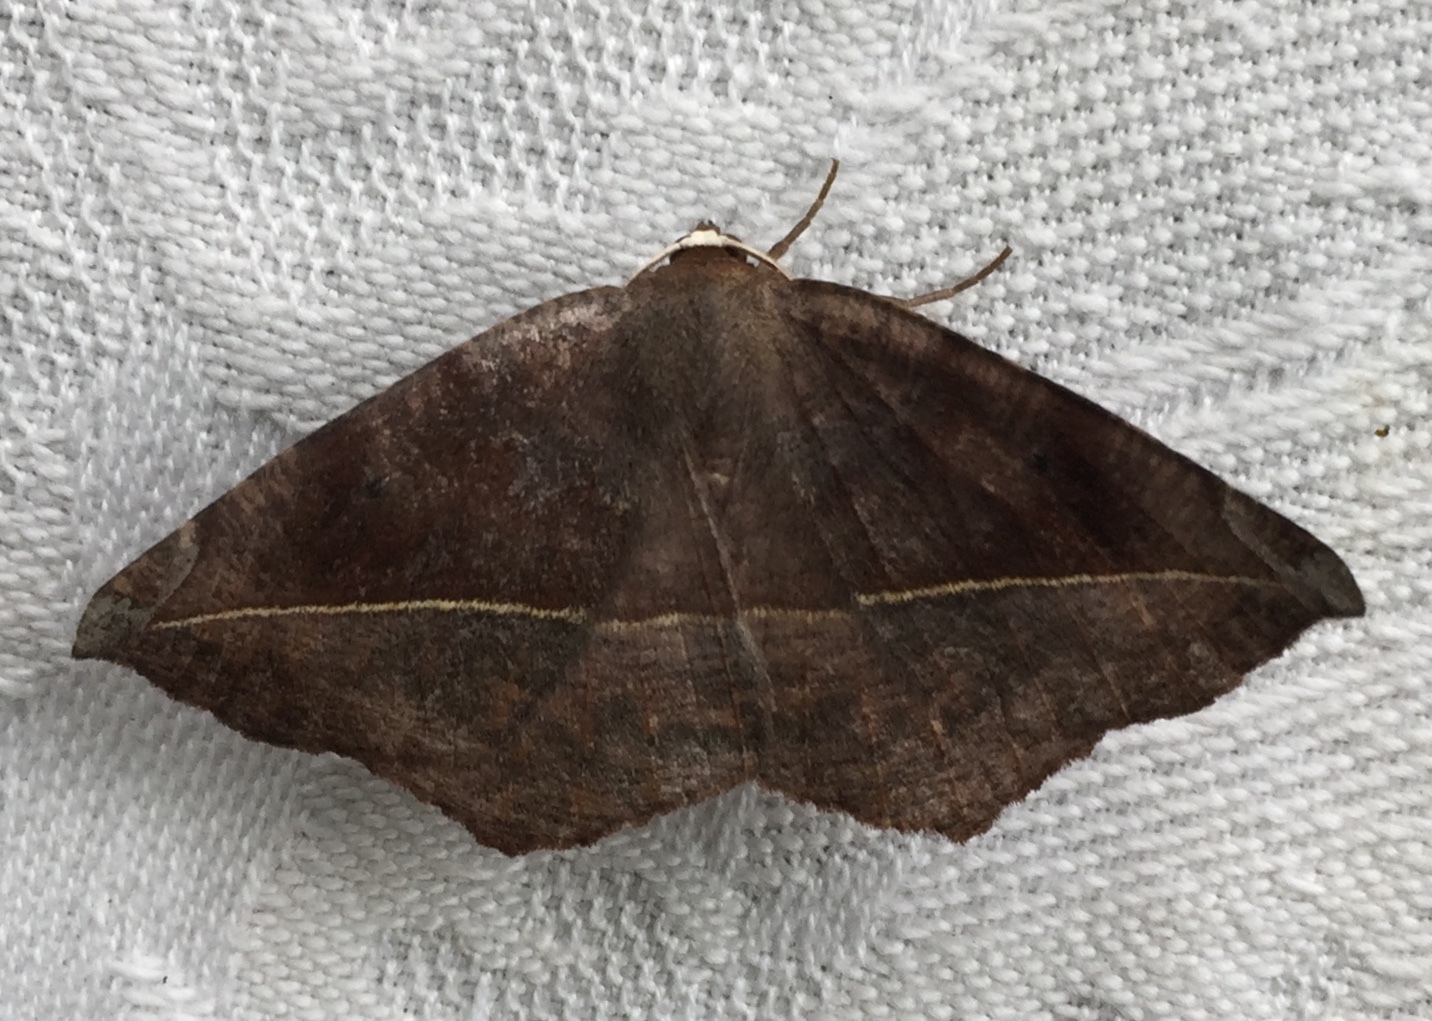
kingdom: Animalia
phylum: Arthropoda
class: Insecta
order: Lepidoptera
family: Geometridae
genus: Eutrapela
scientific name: Eutrapela clemataria
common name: Curved-toothed geometer
